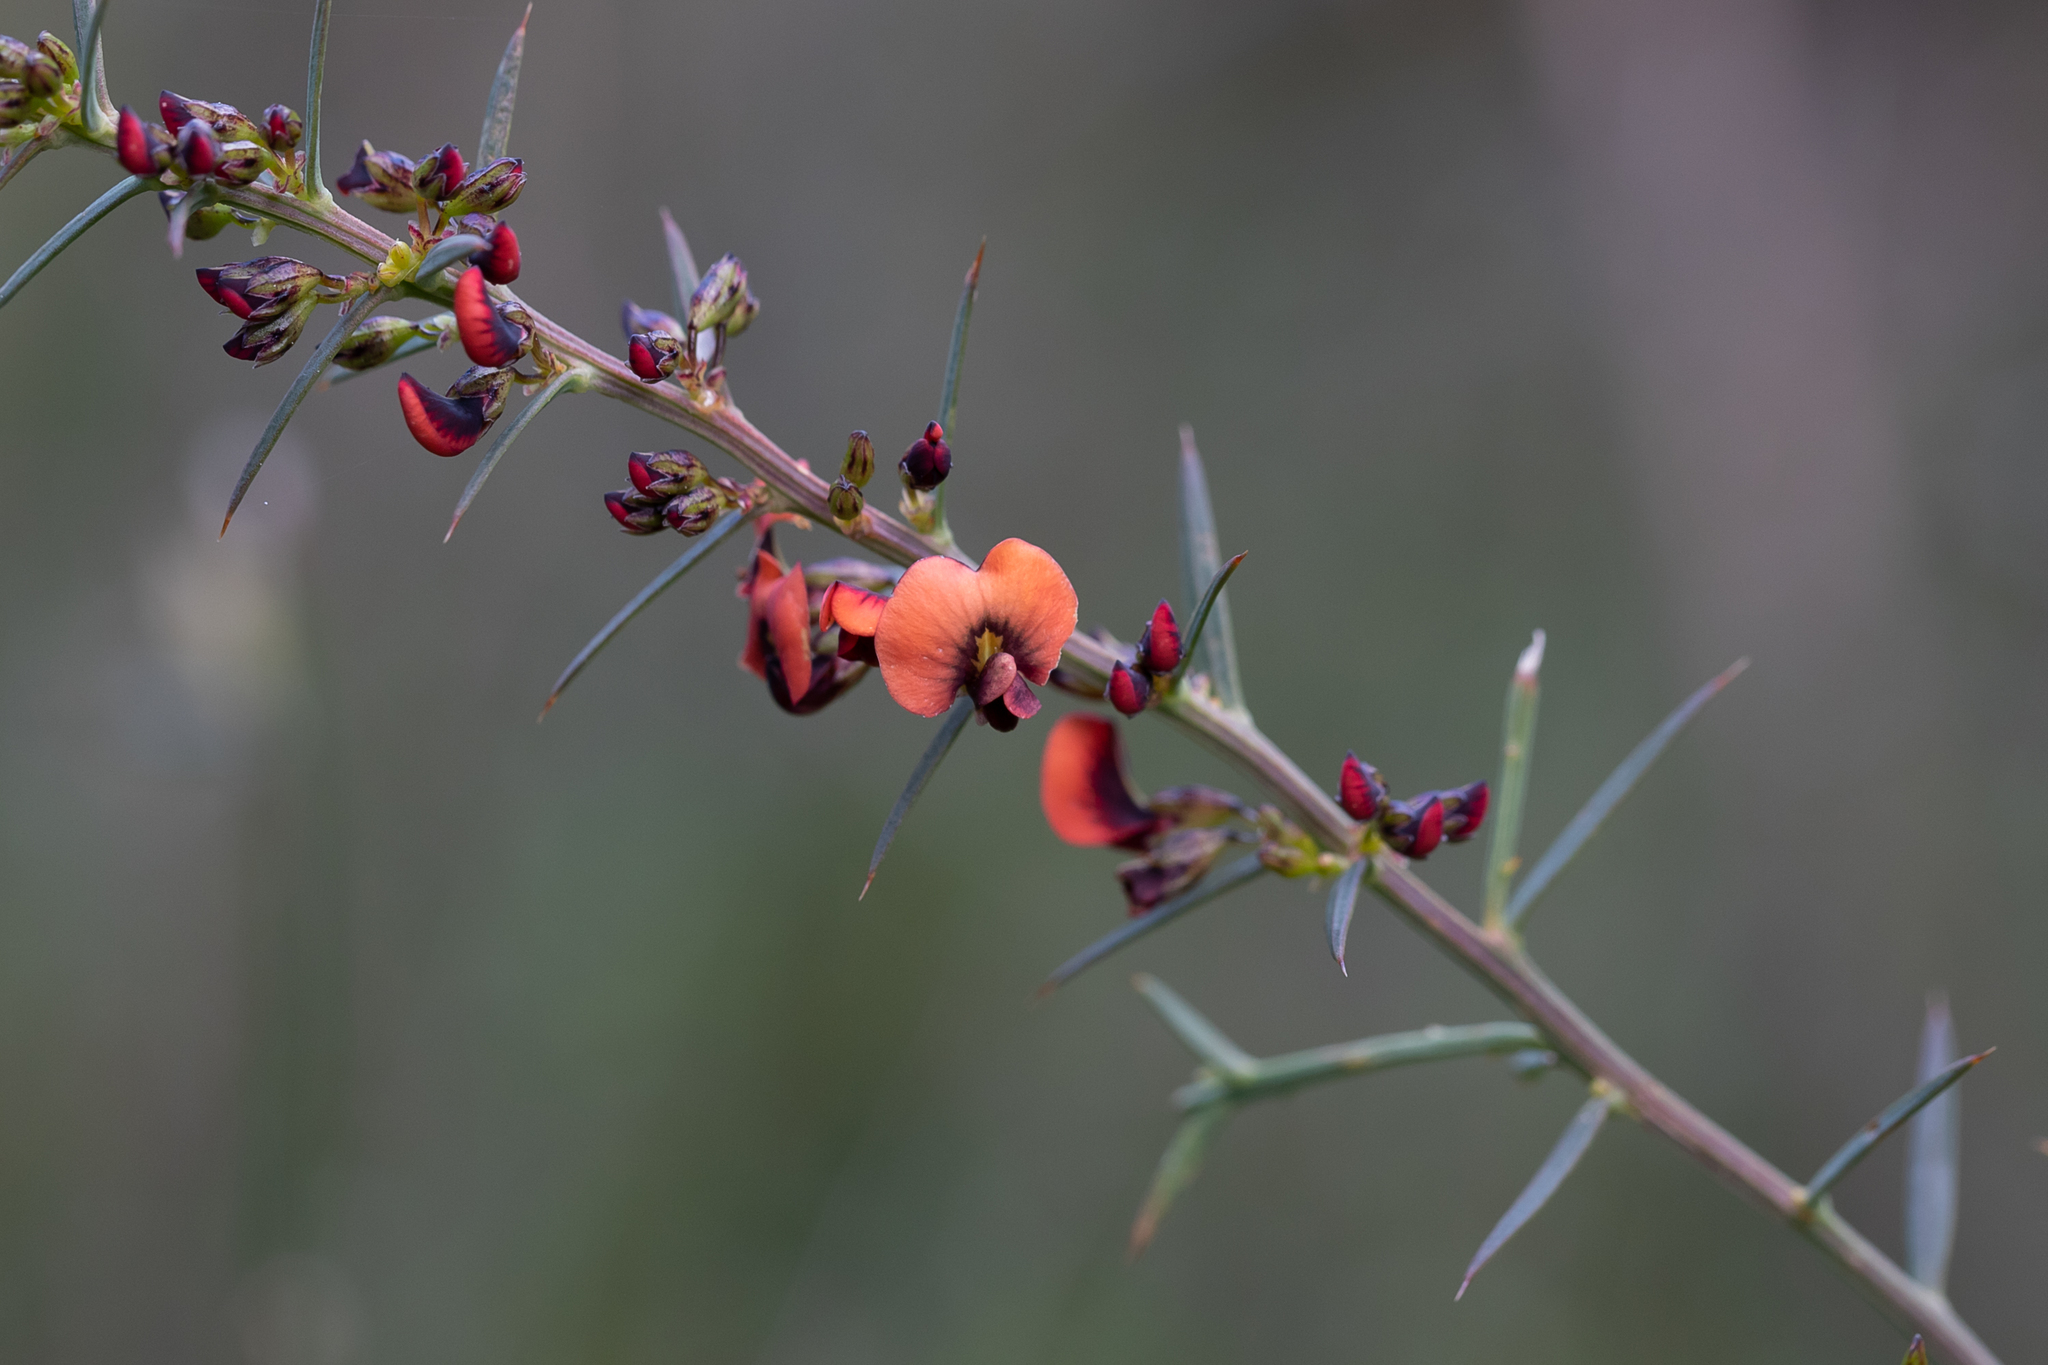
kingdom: Plantae
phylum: Tracheophyta
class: Magnoliopsida
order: Fabales
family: Fabaceae
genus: Daviesia
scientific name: Daviesia ulicifolia
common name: Gorse bitter-pea
